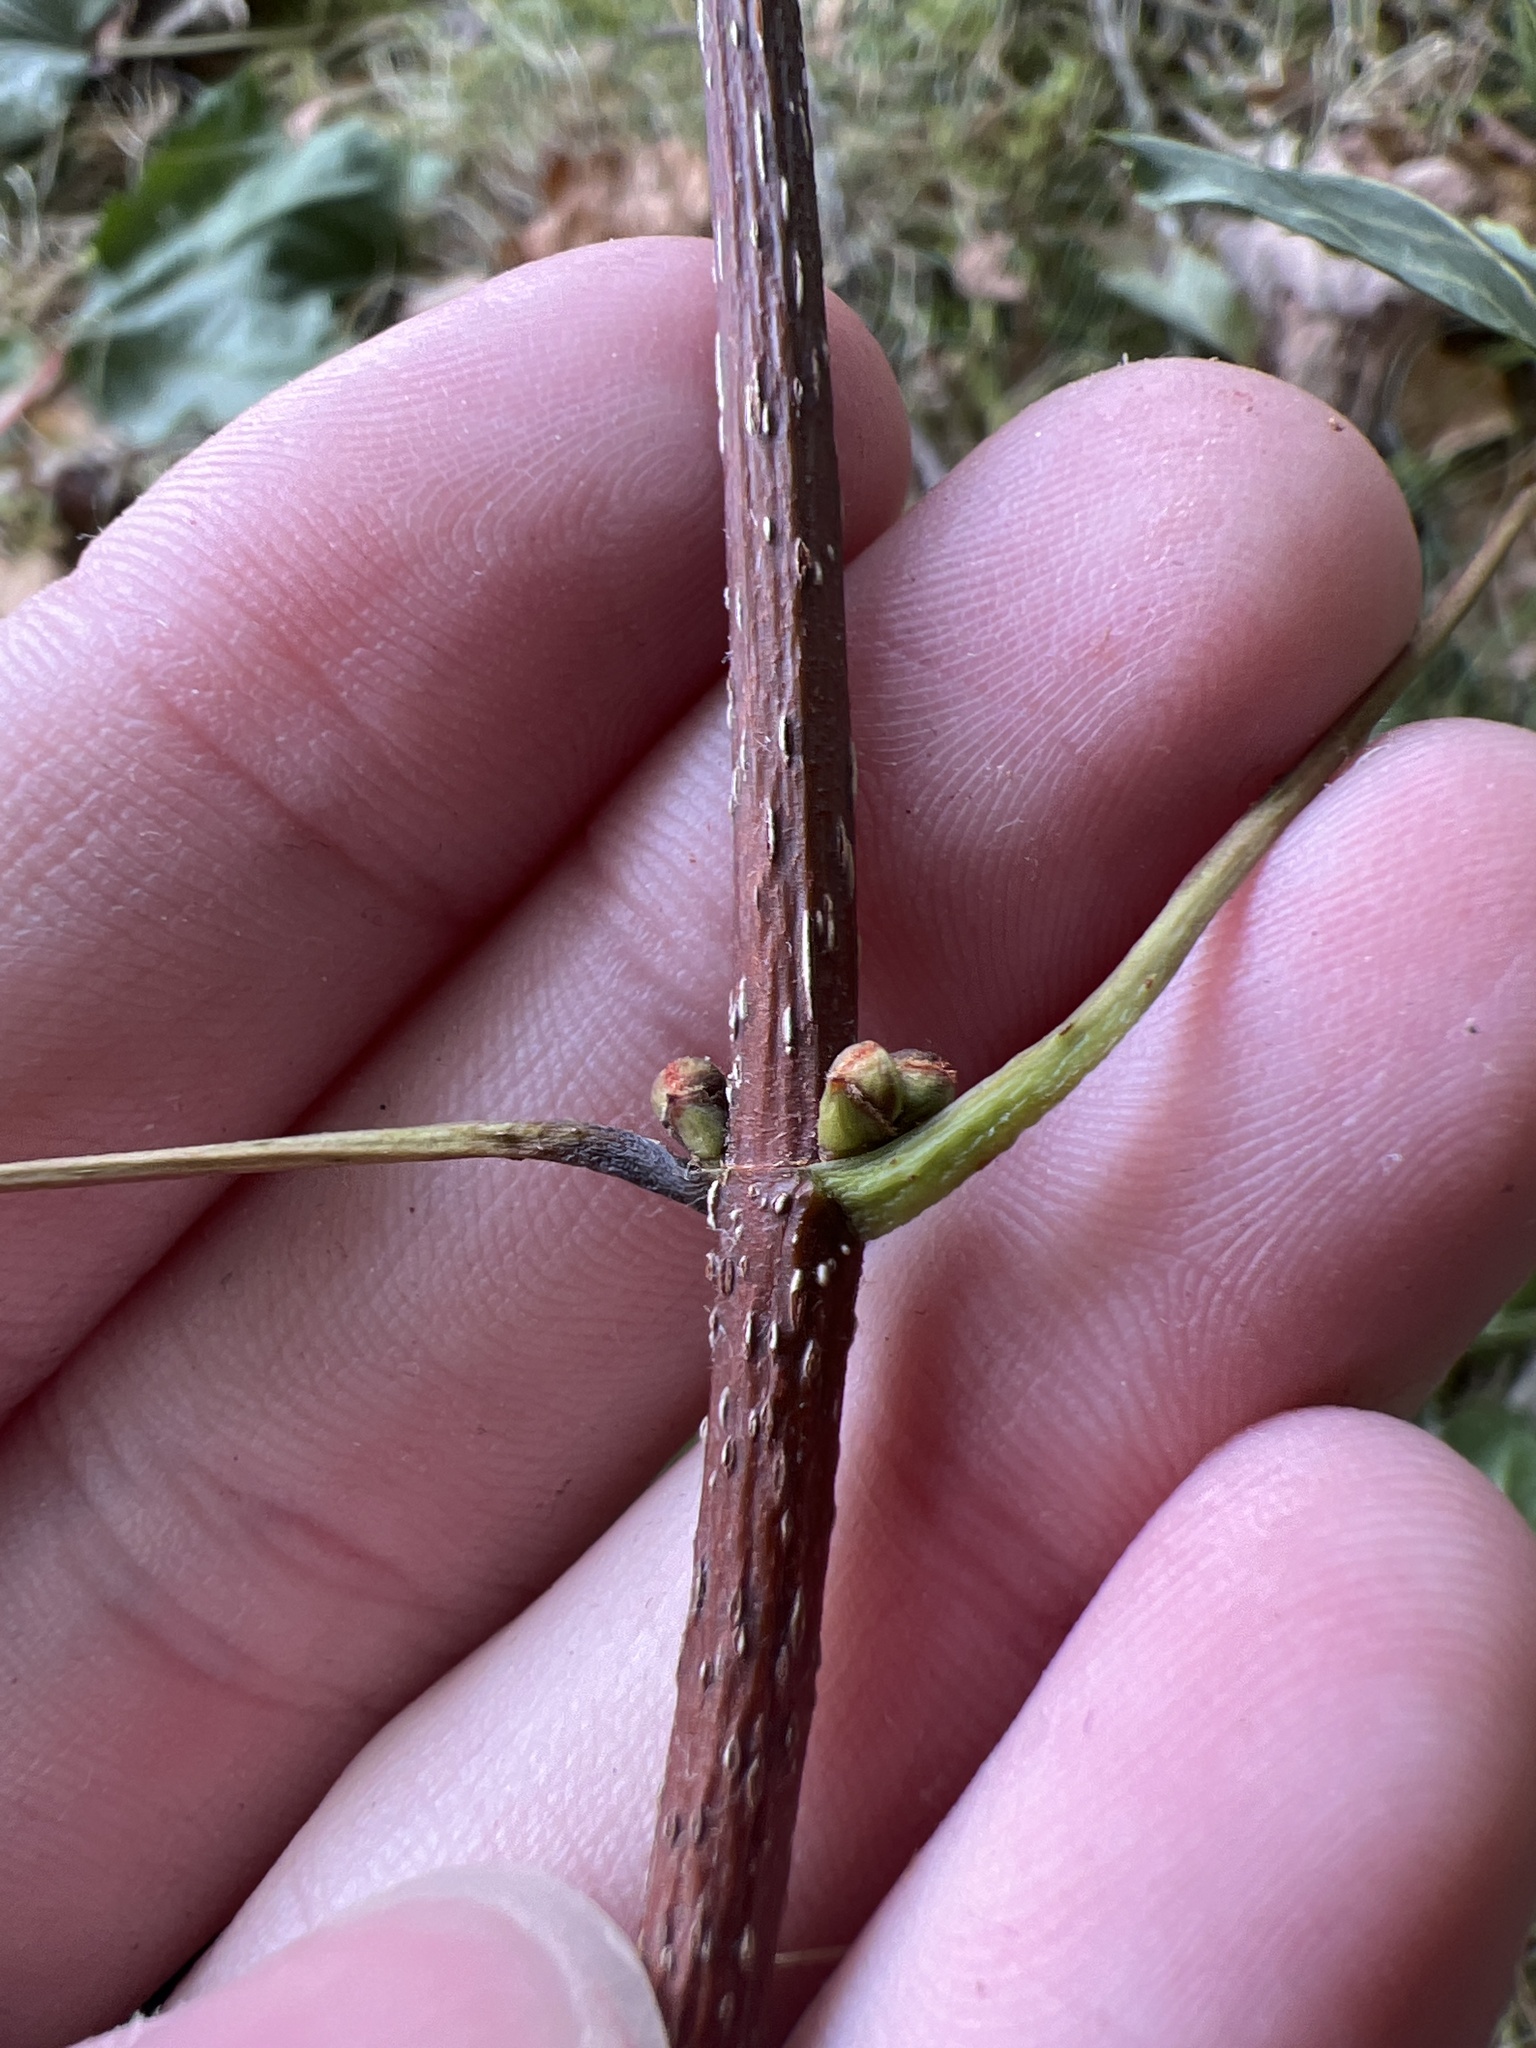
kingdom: Plantae
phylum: Tracheophyta
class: Magnoliopsida
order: Sapindales
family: Sapindaceae
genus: Acer
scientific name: Acer rubrum
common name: Red maple
